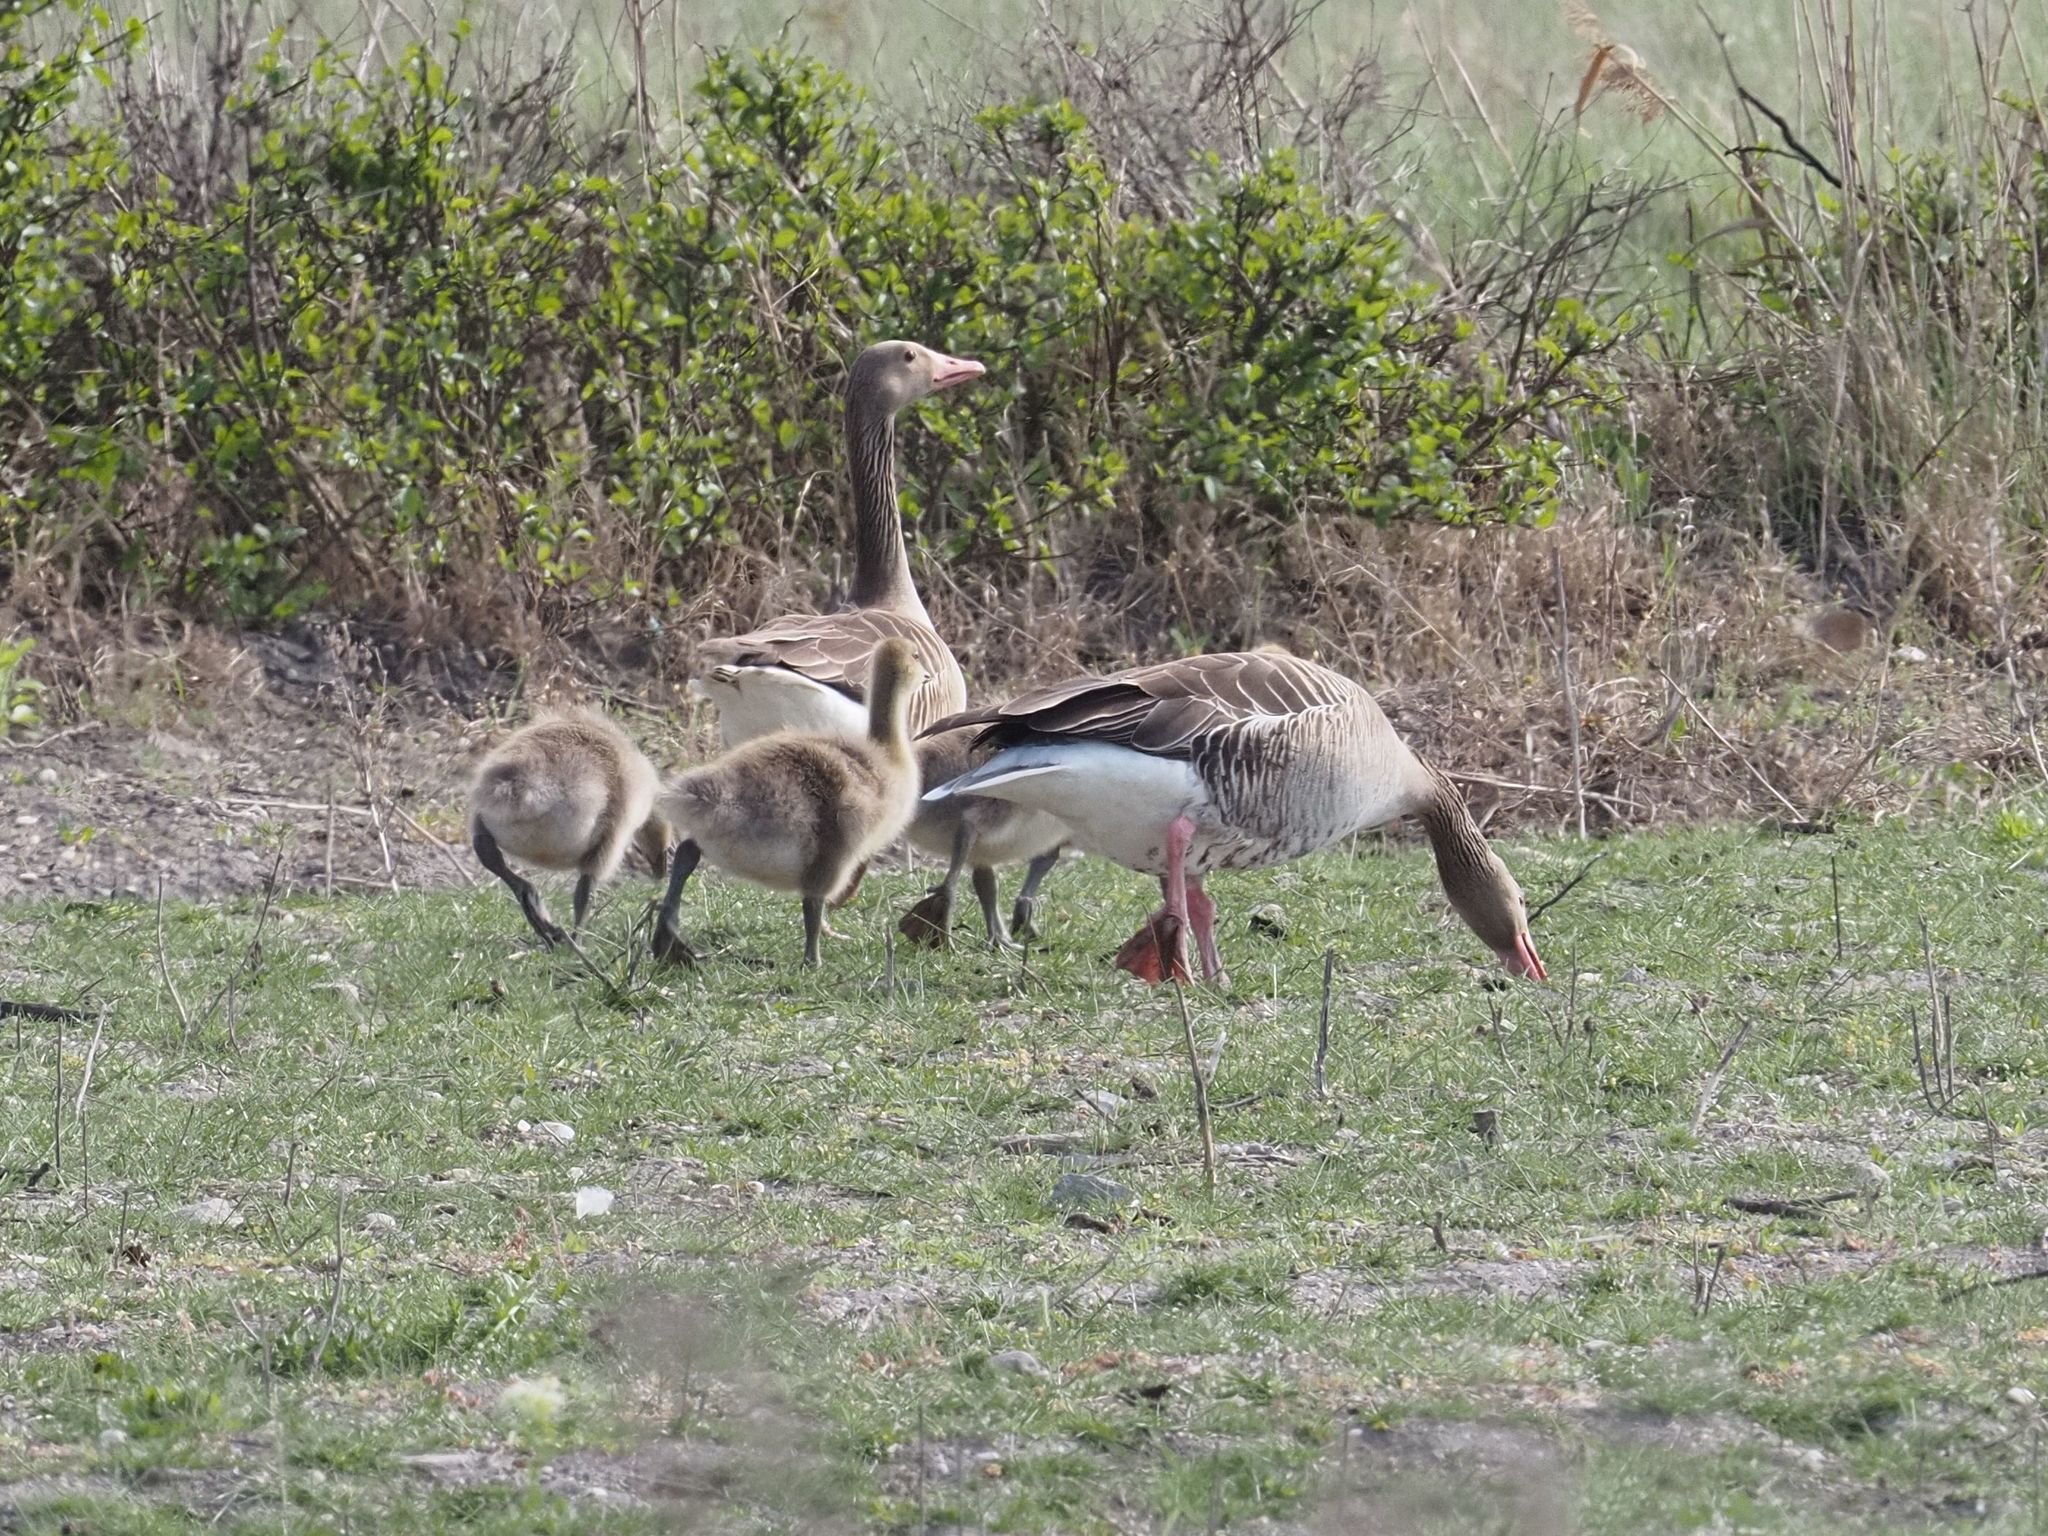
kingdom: Animalia
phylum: Chordata
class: Aves
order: Anseriformes
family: Anatidae
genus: Anser
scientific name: Anser anser
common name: Greylag goose
